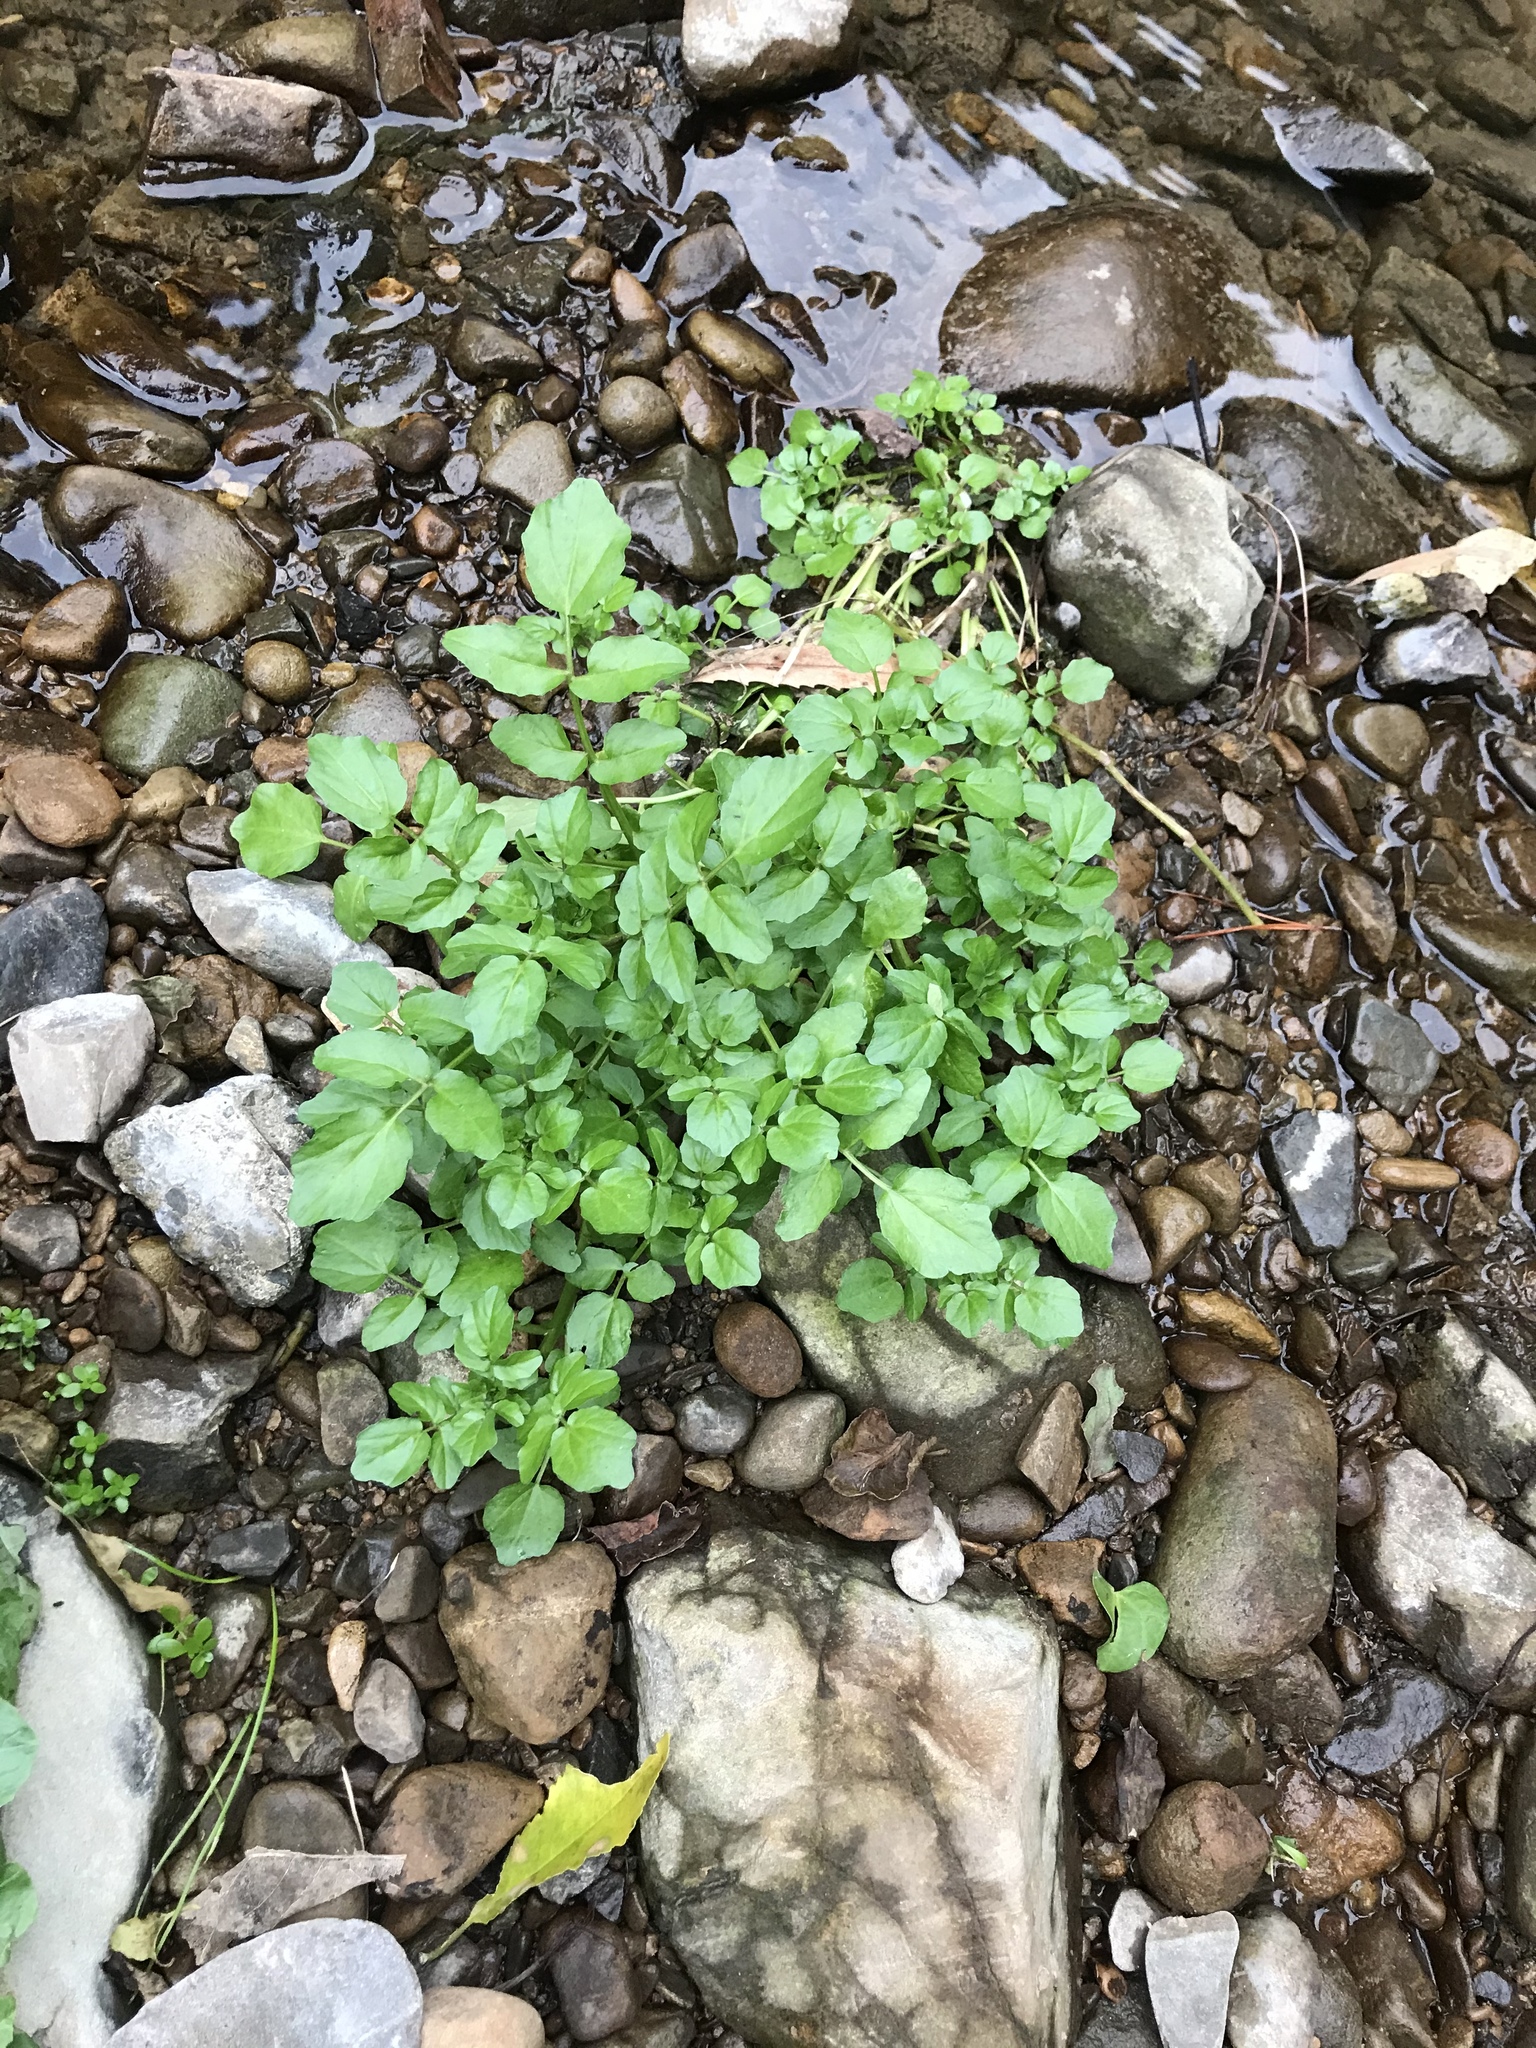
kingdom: Plantae
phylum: Tracheophyta
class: Magnoliopsida
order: Brassicales
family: Brassicaceae
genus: Nasturtium
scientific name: Nasturtium officinale
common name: Watercress
